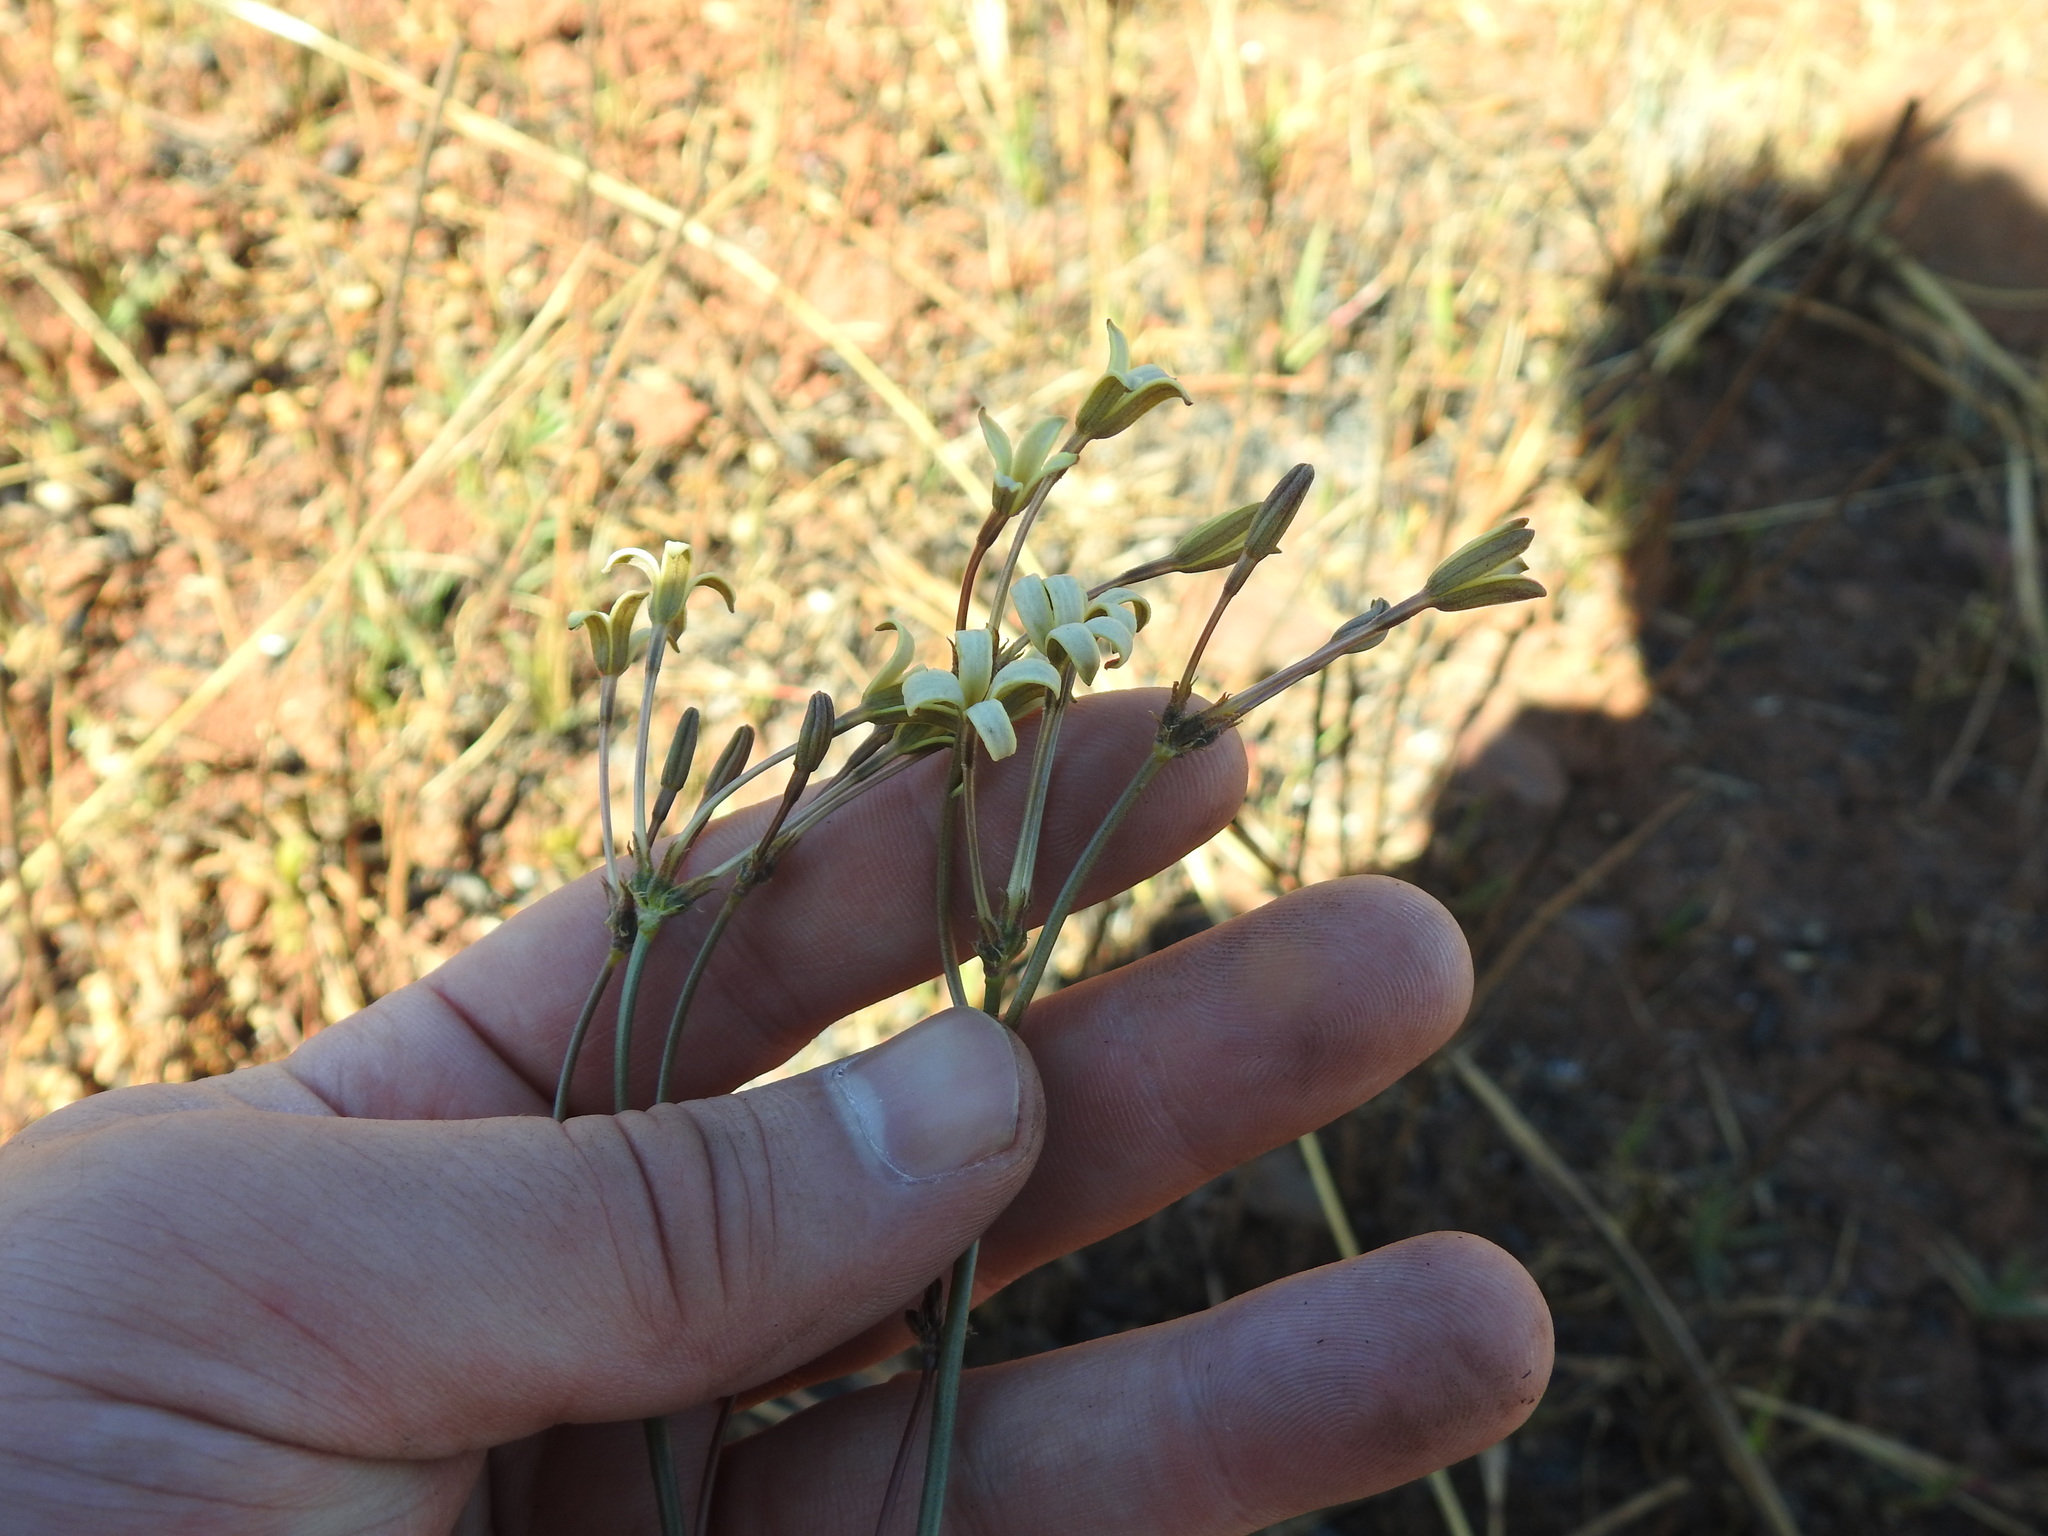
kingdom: Plantae
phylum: Tracheophyta
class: Magnoliopsida
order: Gentianales
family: Rubiaceae
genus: Kohautia
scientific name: Kohautia amatymbica
